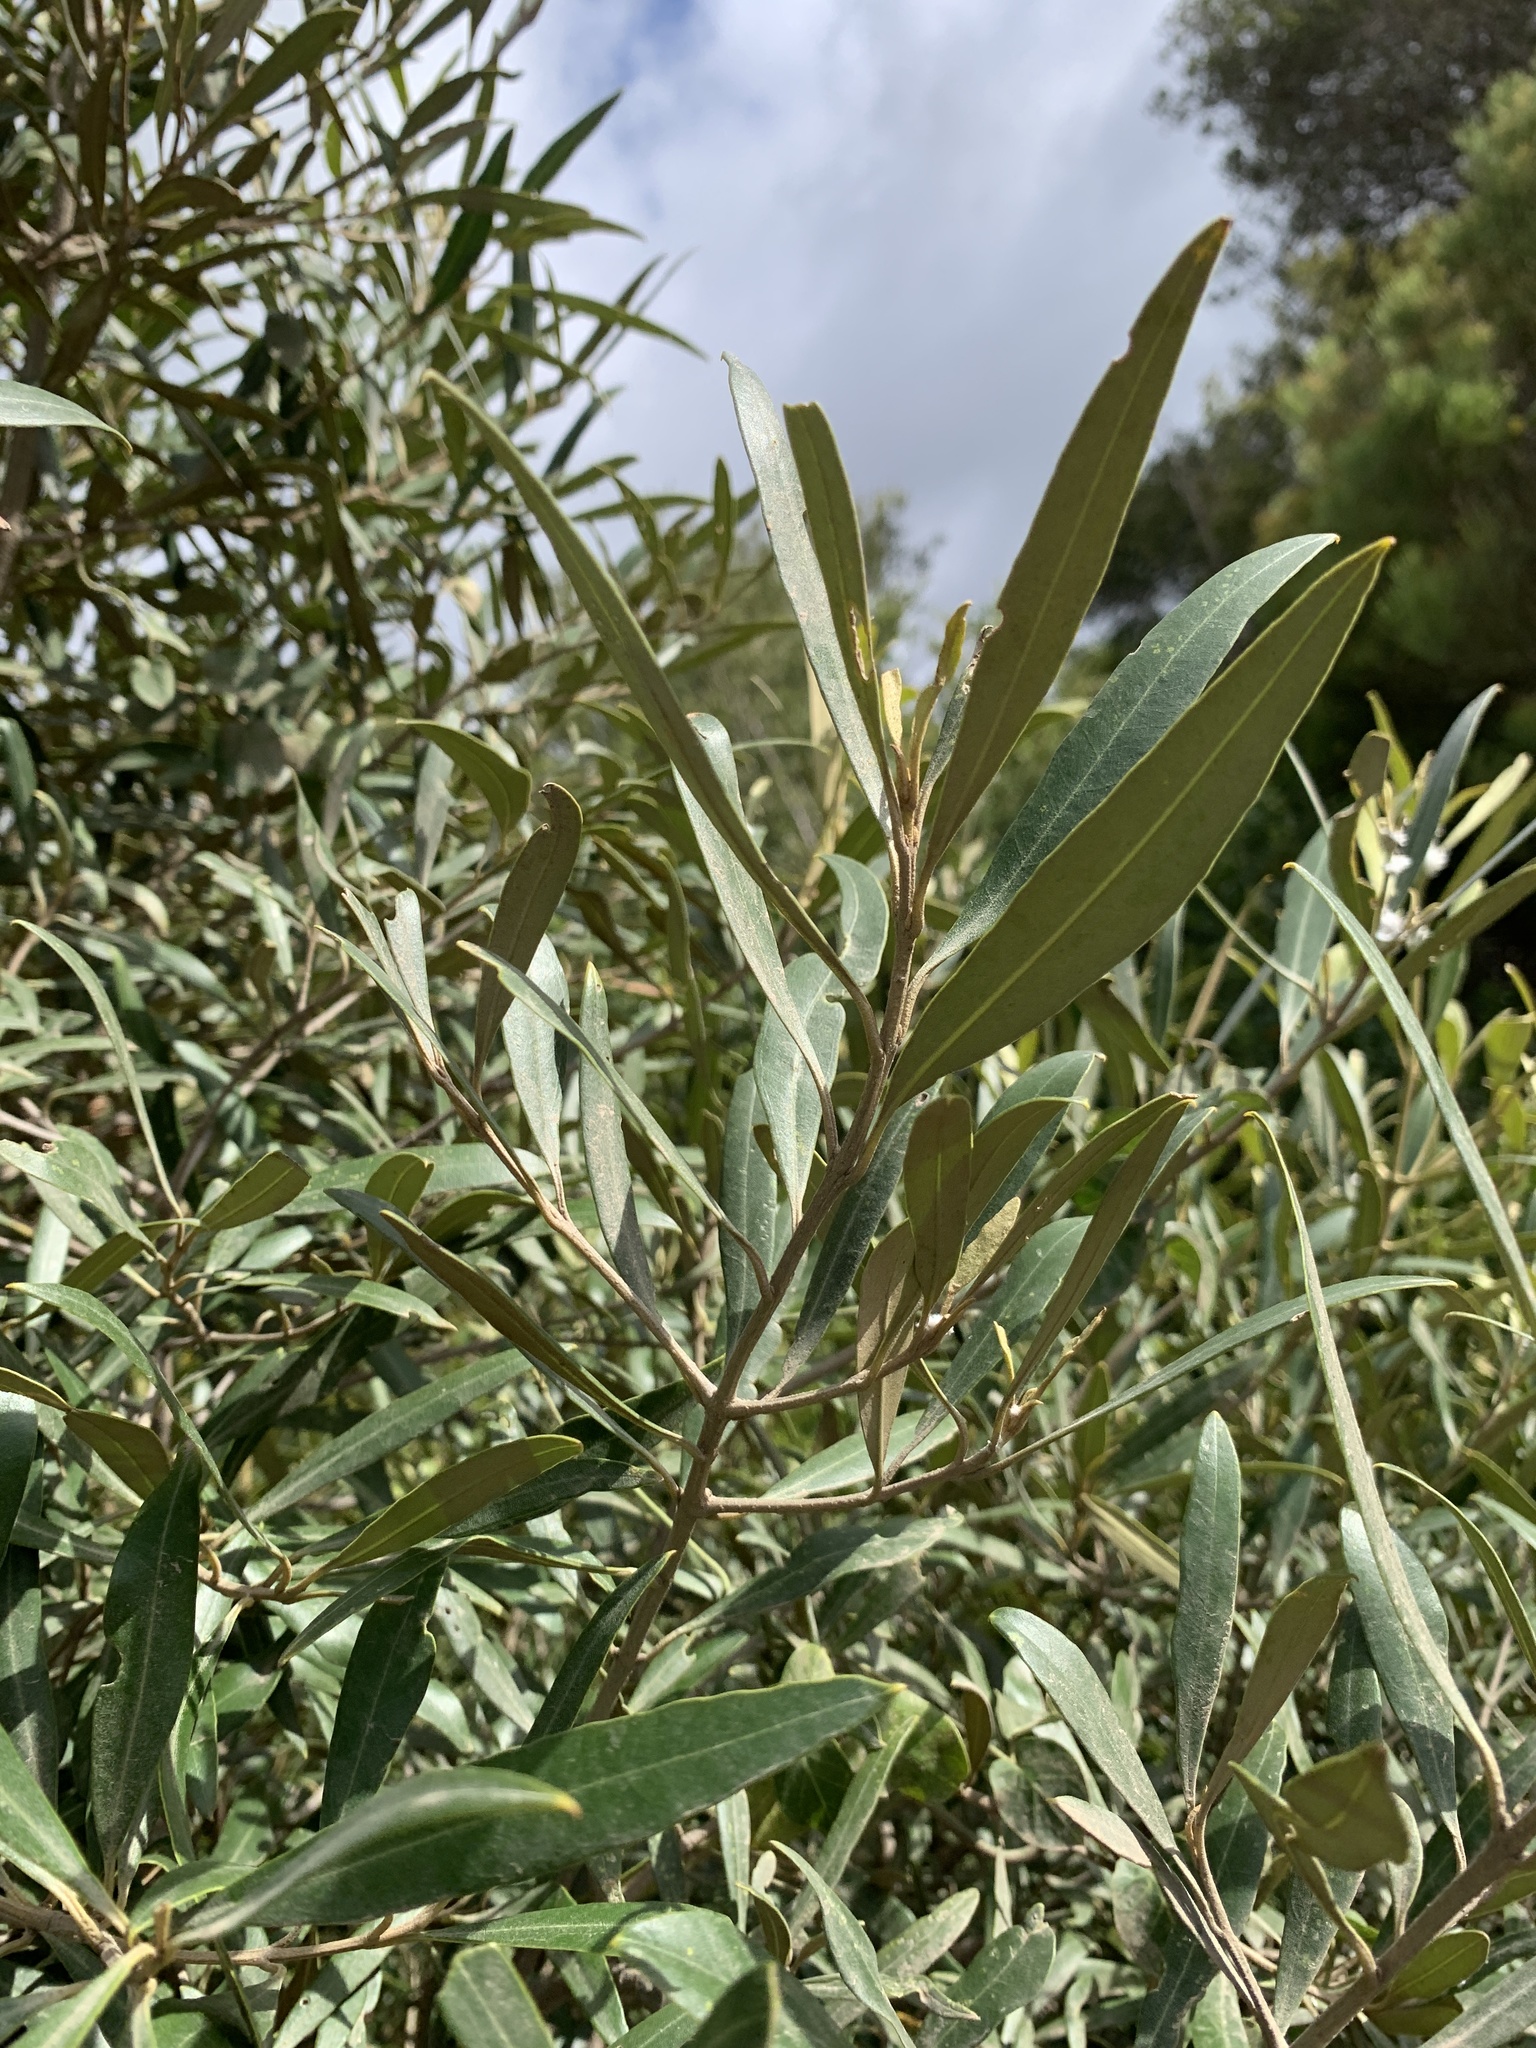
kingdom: Plantae
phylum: Tracheophyta
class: Magnoliopsida
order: Lamiales
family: Oleaceae
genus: Olea
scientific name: Olea europaea
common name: Olive
